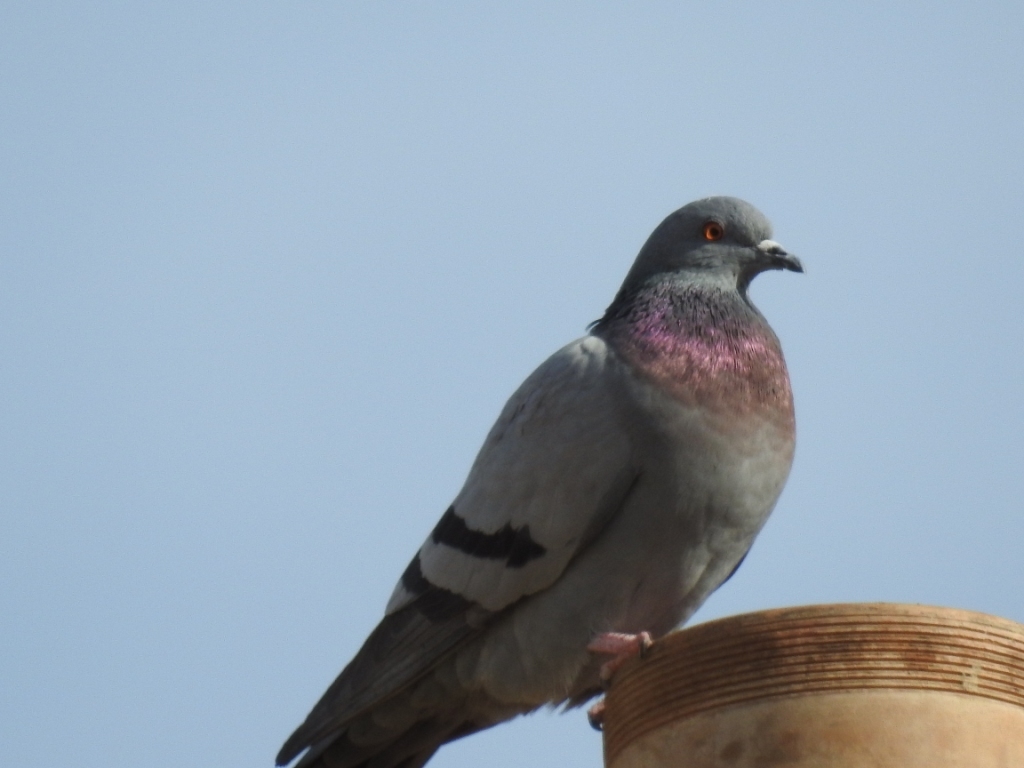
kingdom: Animalia
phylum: Chordata
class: Aves
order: Columbiformes
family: Columbidae
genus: Columba
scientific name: Columba livia
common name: Rock pigeon
